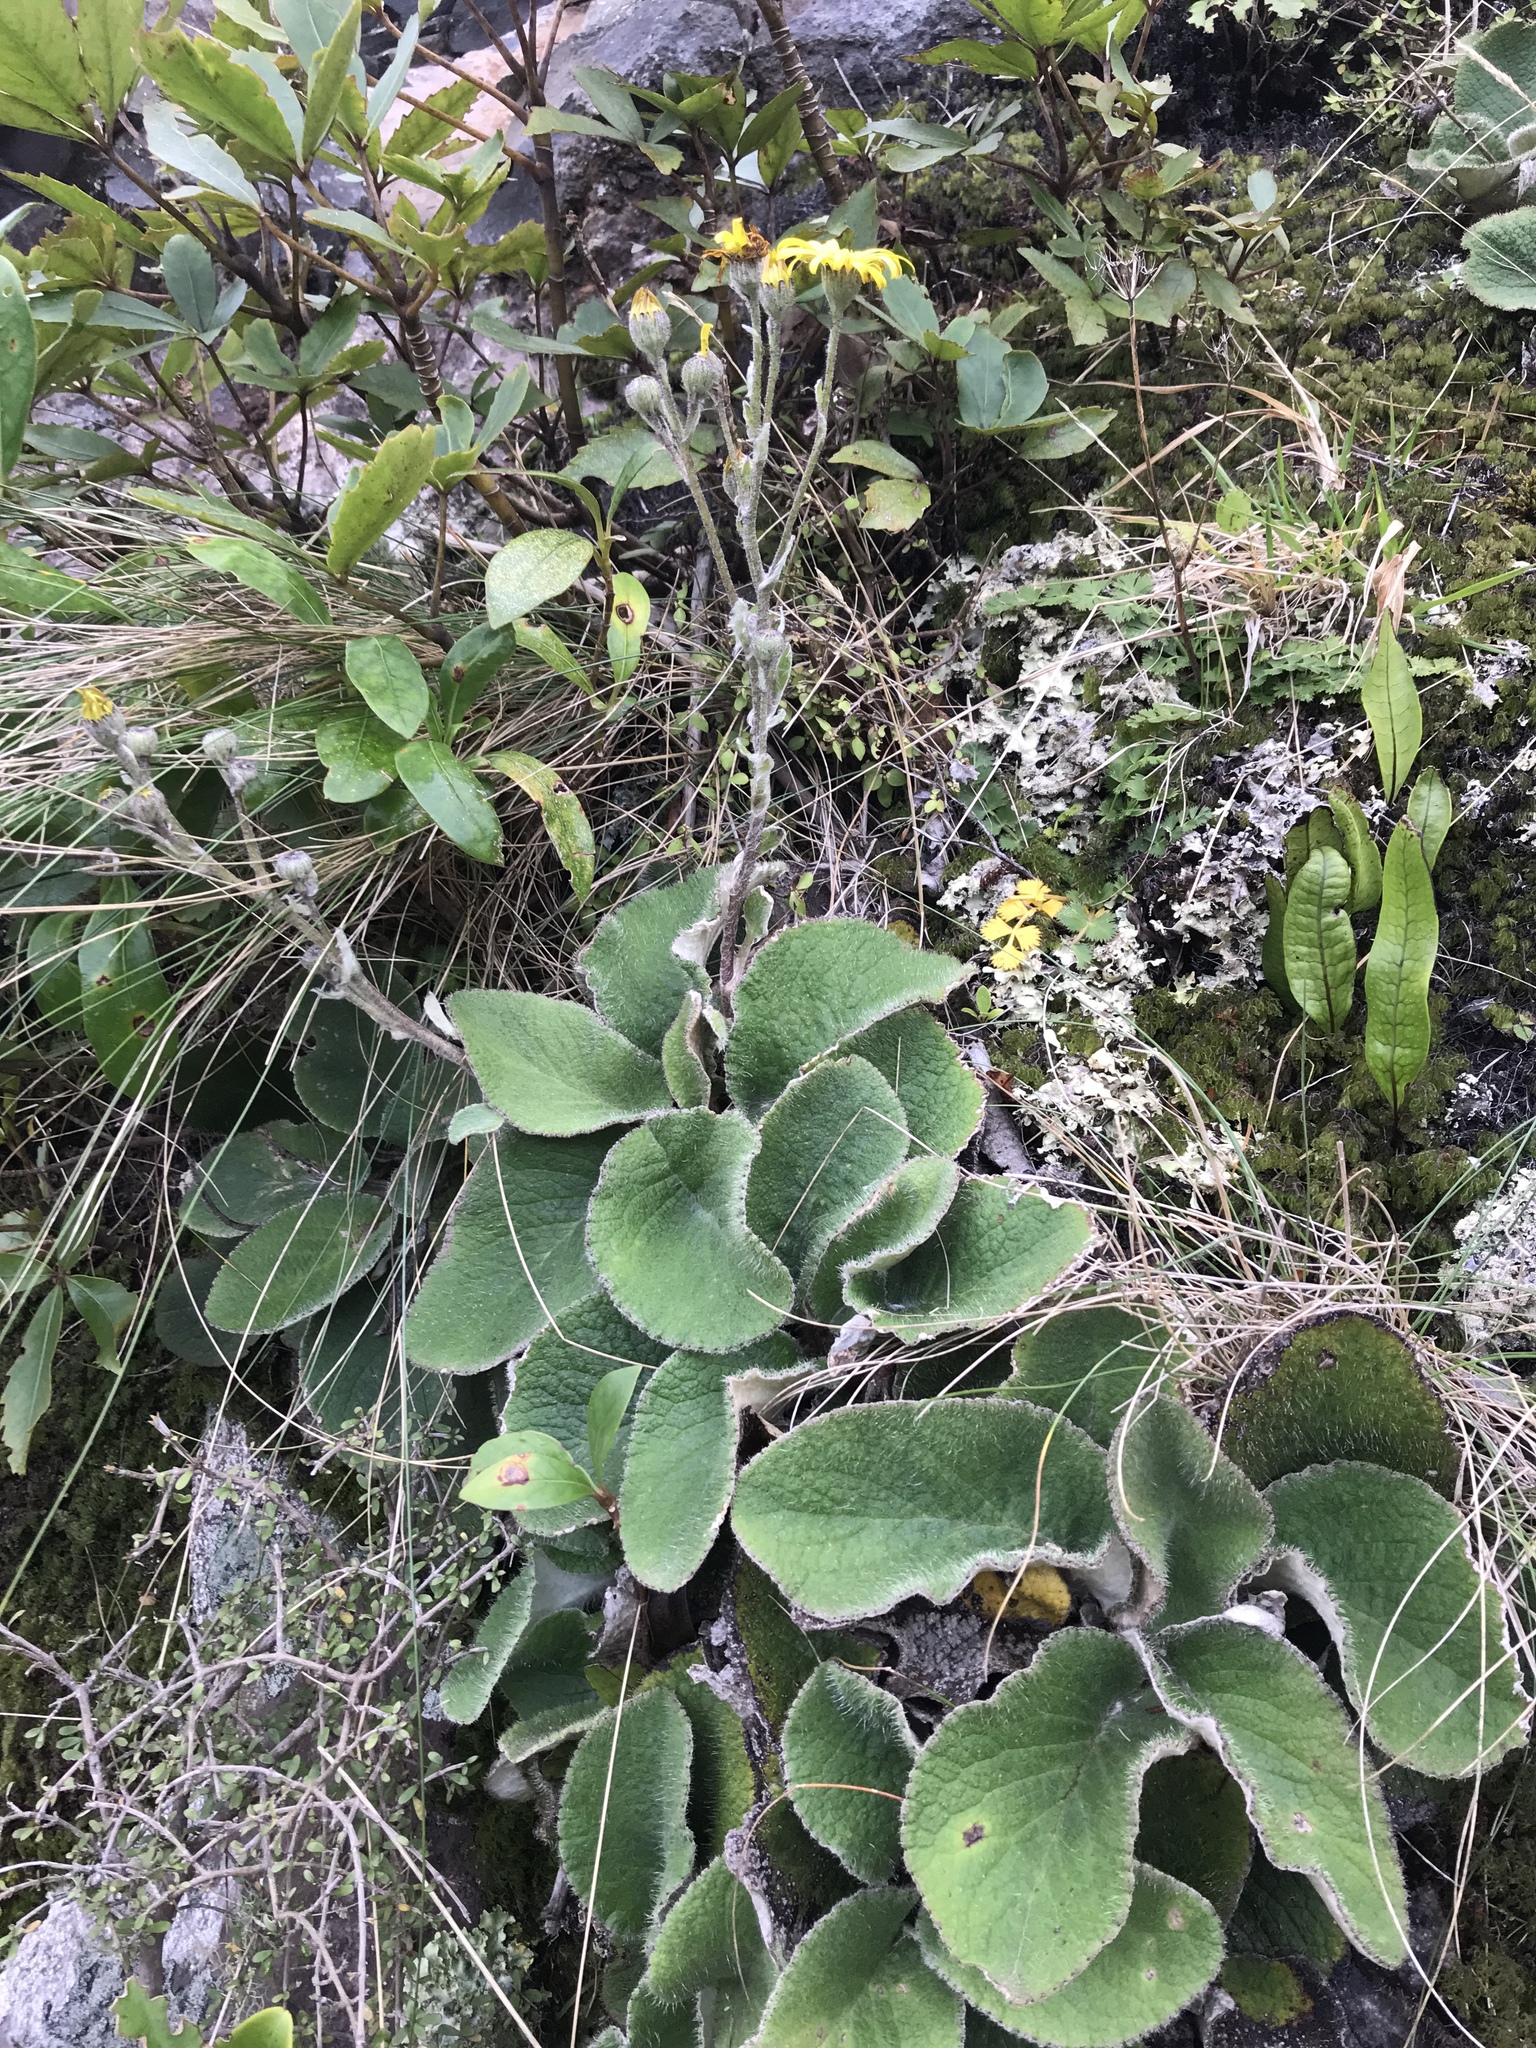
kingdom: Plantae
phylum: Tracheophyta
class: Magnoliopsida
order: Asterales
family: Asteraceae
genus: Brachyglottis
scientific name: Brachyglottis lagopus
